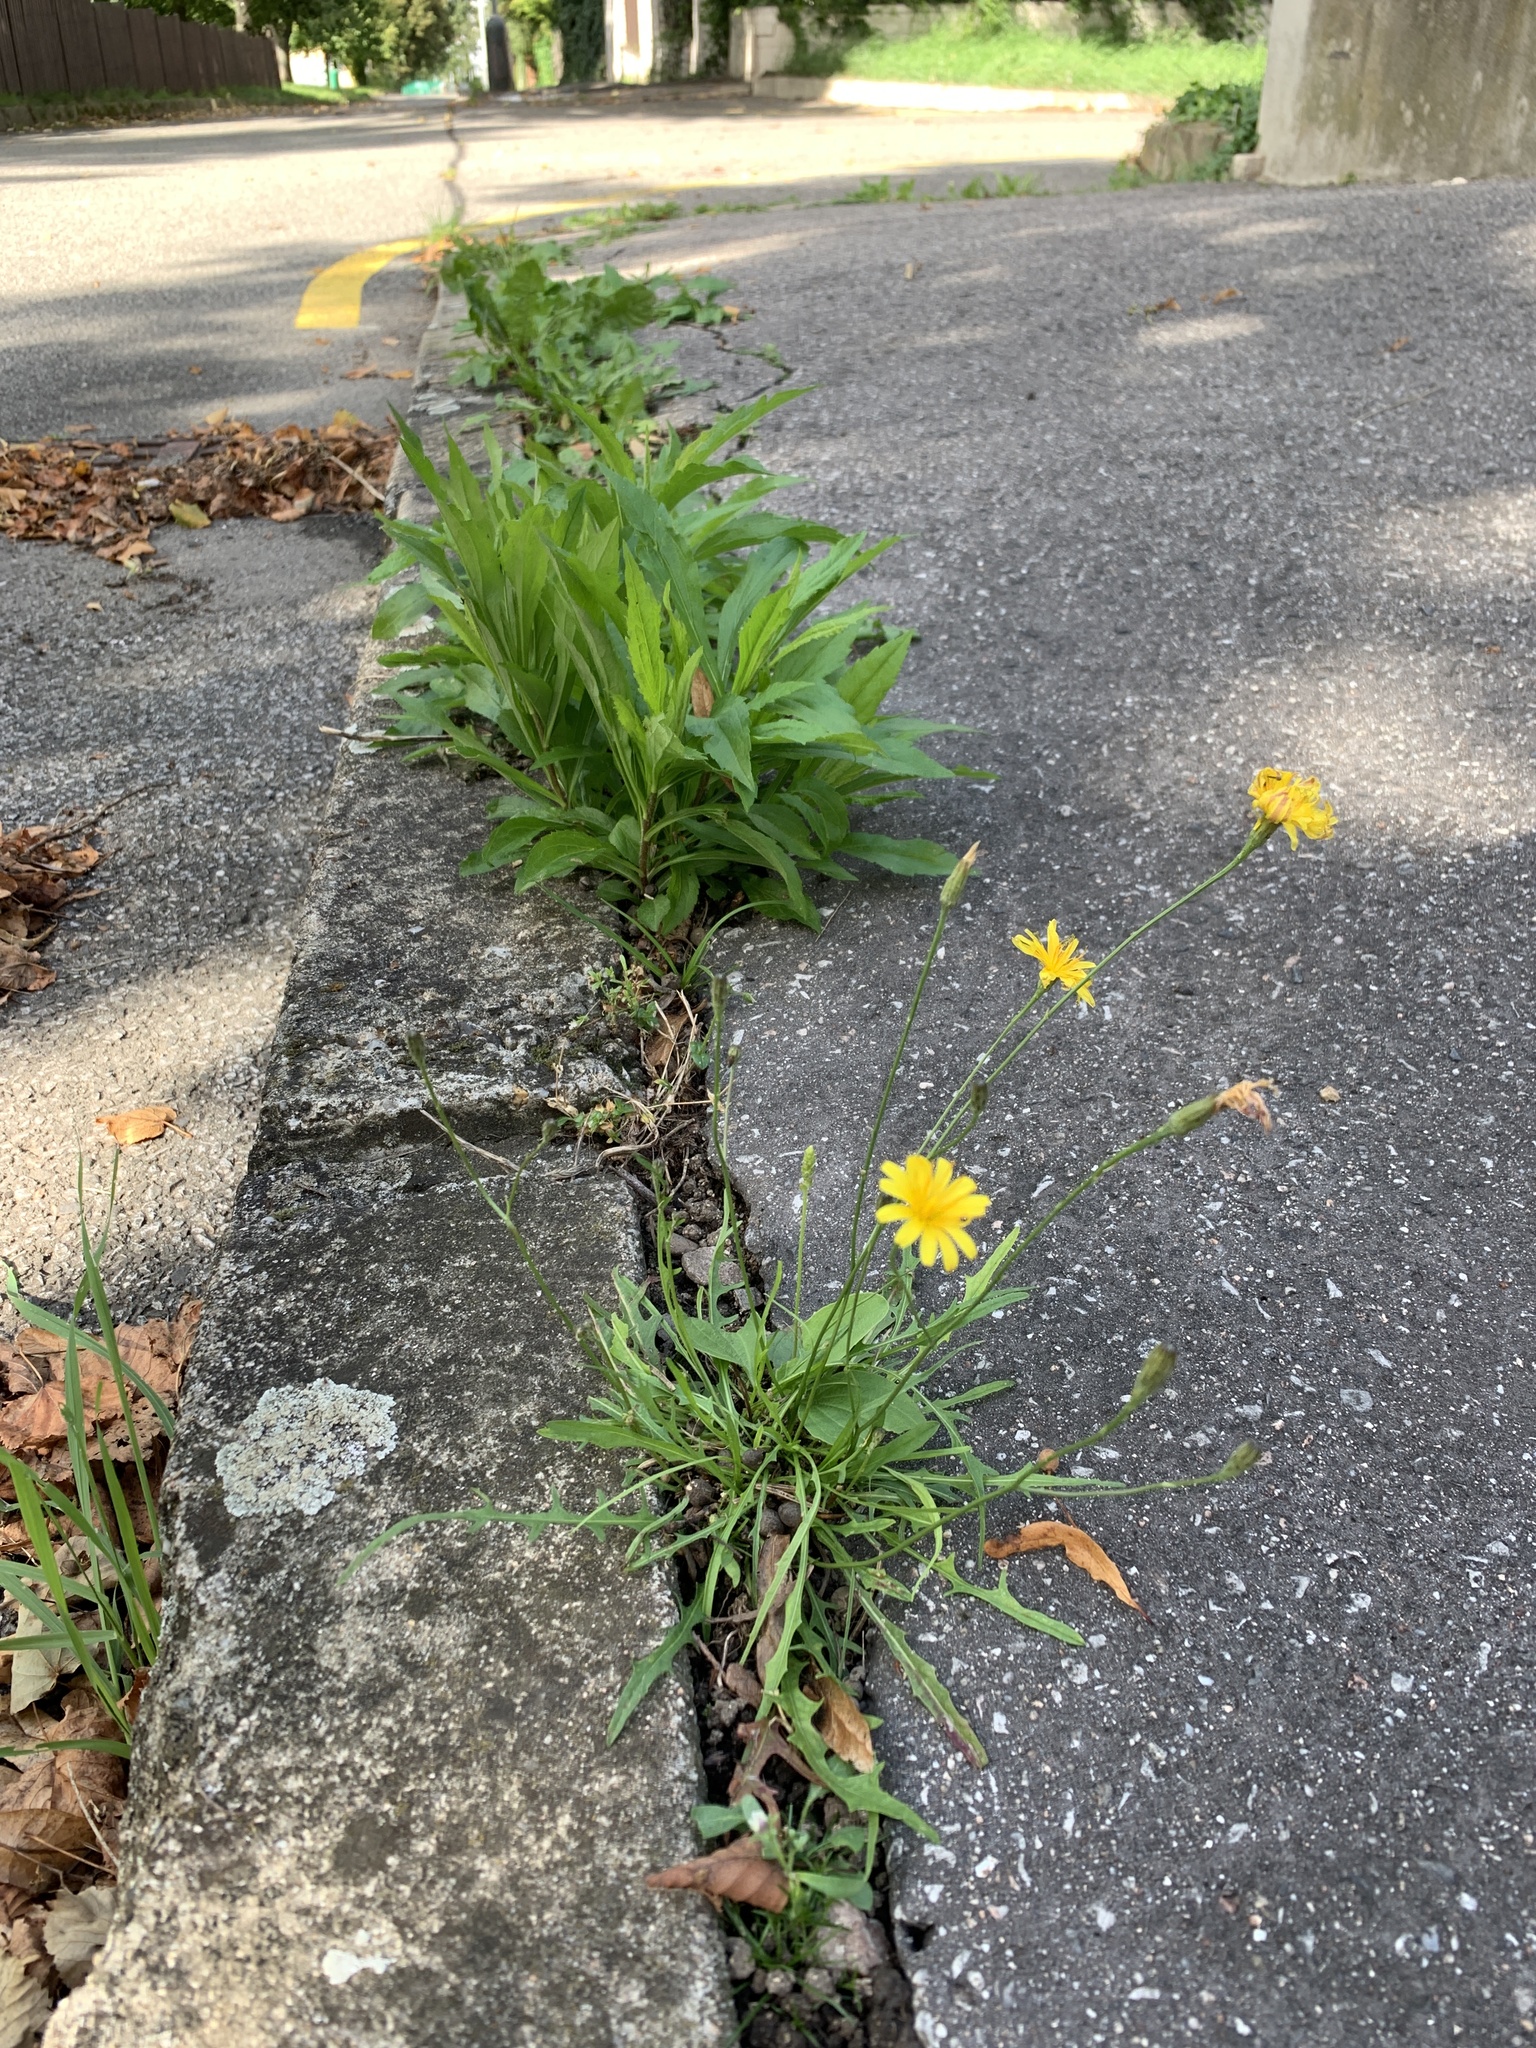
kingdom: Plantae
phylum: Tracheophyta
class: Magnoliopsida
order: Asterales
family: Asteraceae
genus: Scorzoneroides
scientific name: Scorzoneroides autumnalis
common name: Autumn hawkbit
